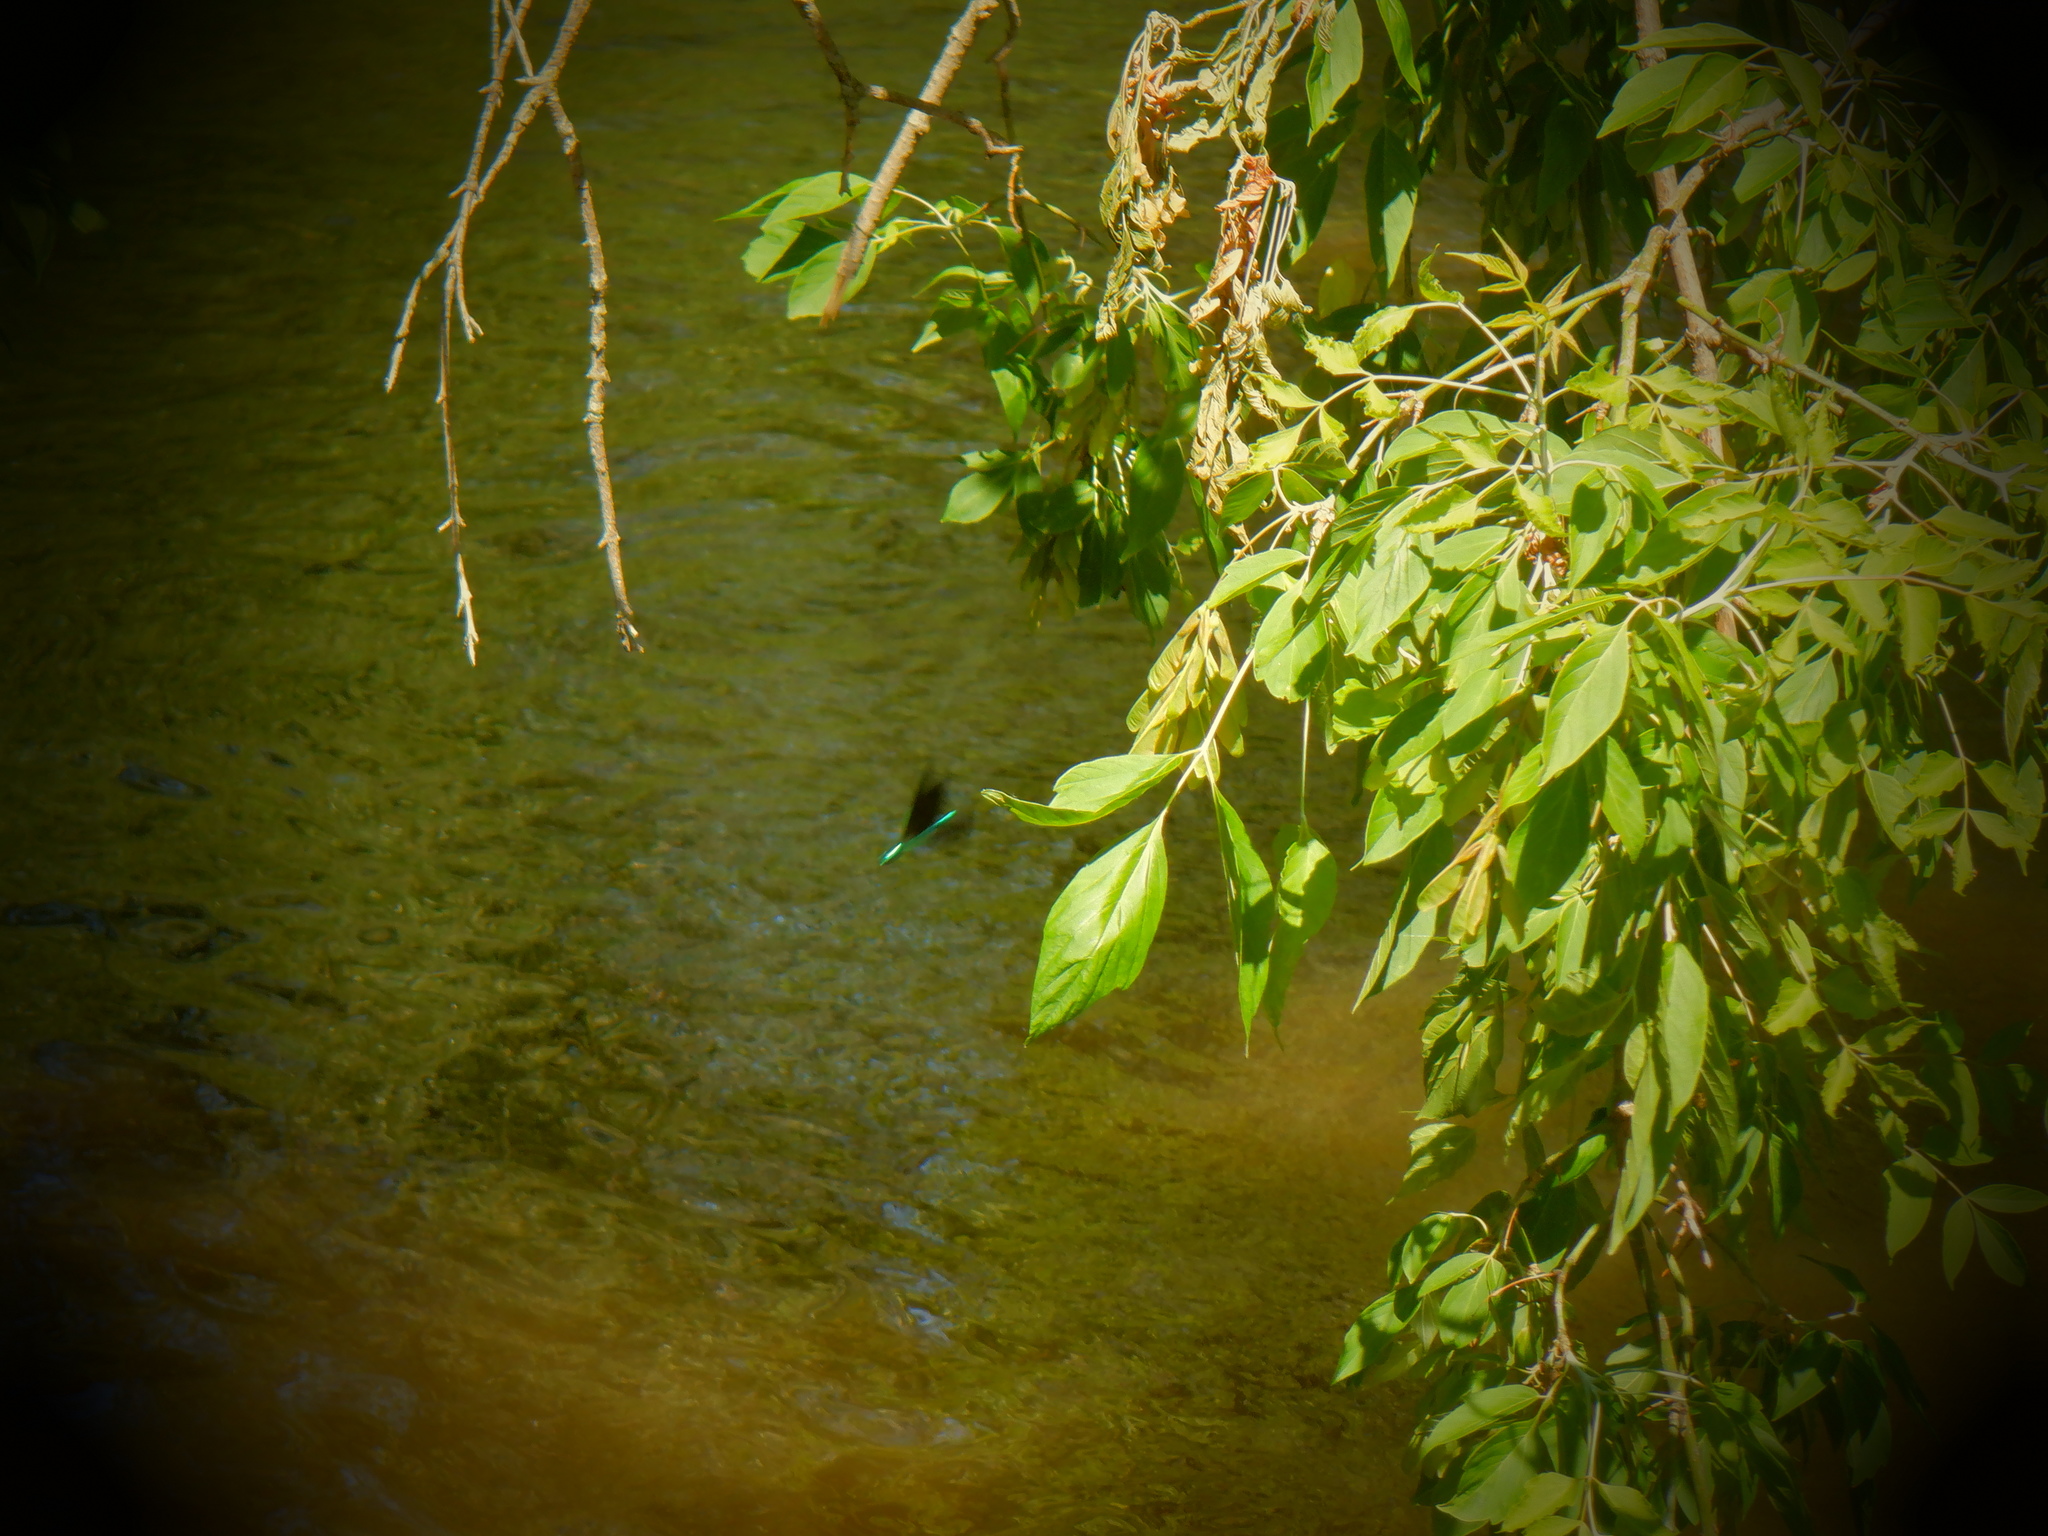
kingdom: Animalia
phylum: Arthropoda
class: Insecta
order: Odonata
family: Calopterygidae
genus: Calopteryx
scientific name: Calopteryx maculata
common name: Ebony jewelwing
